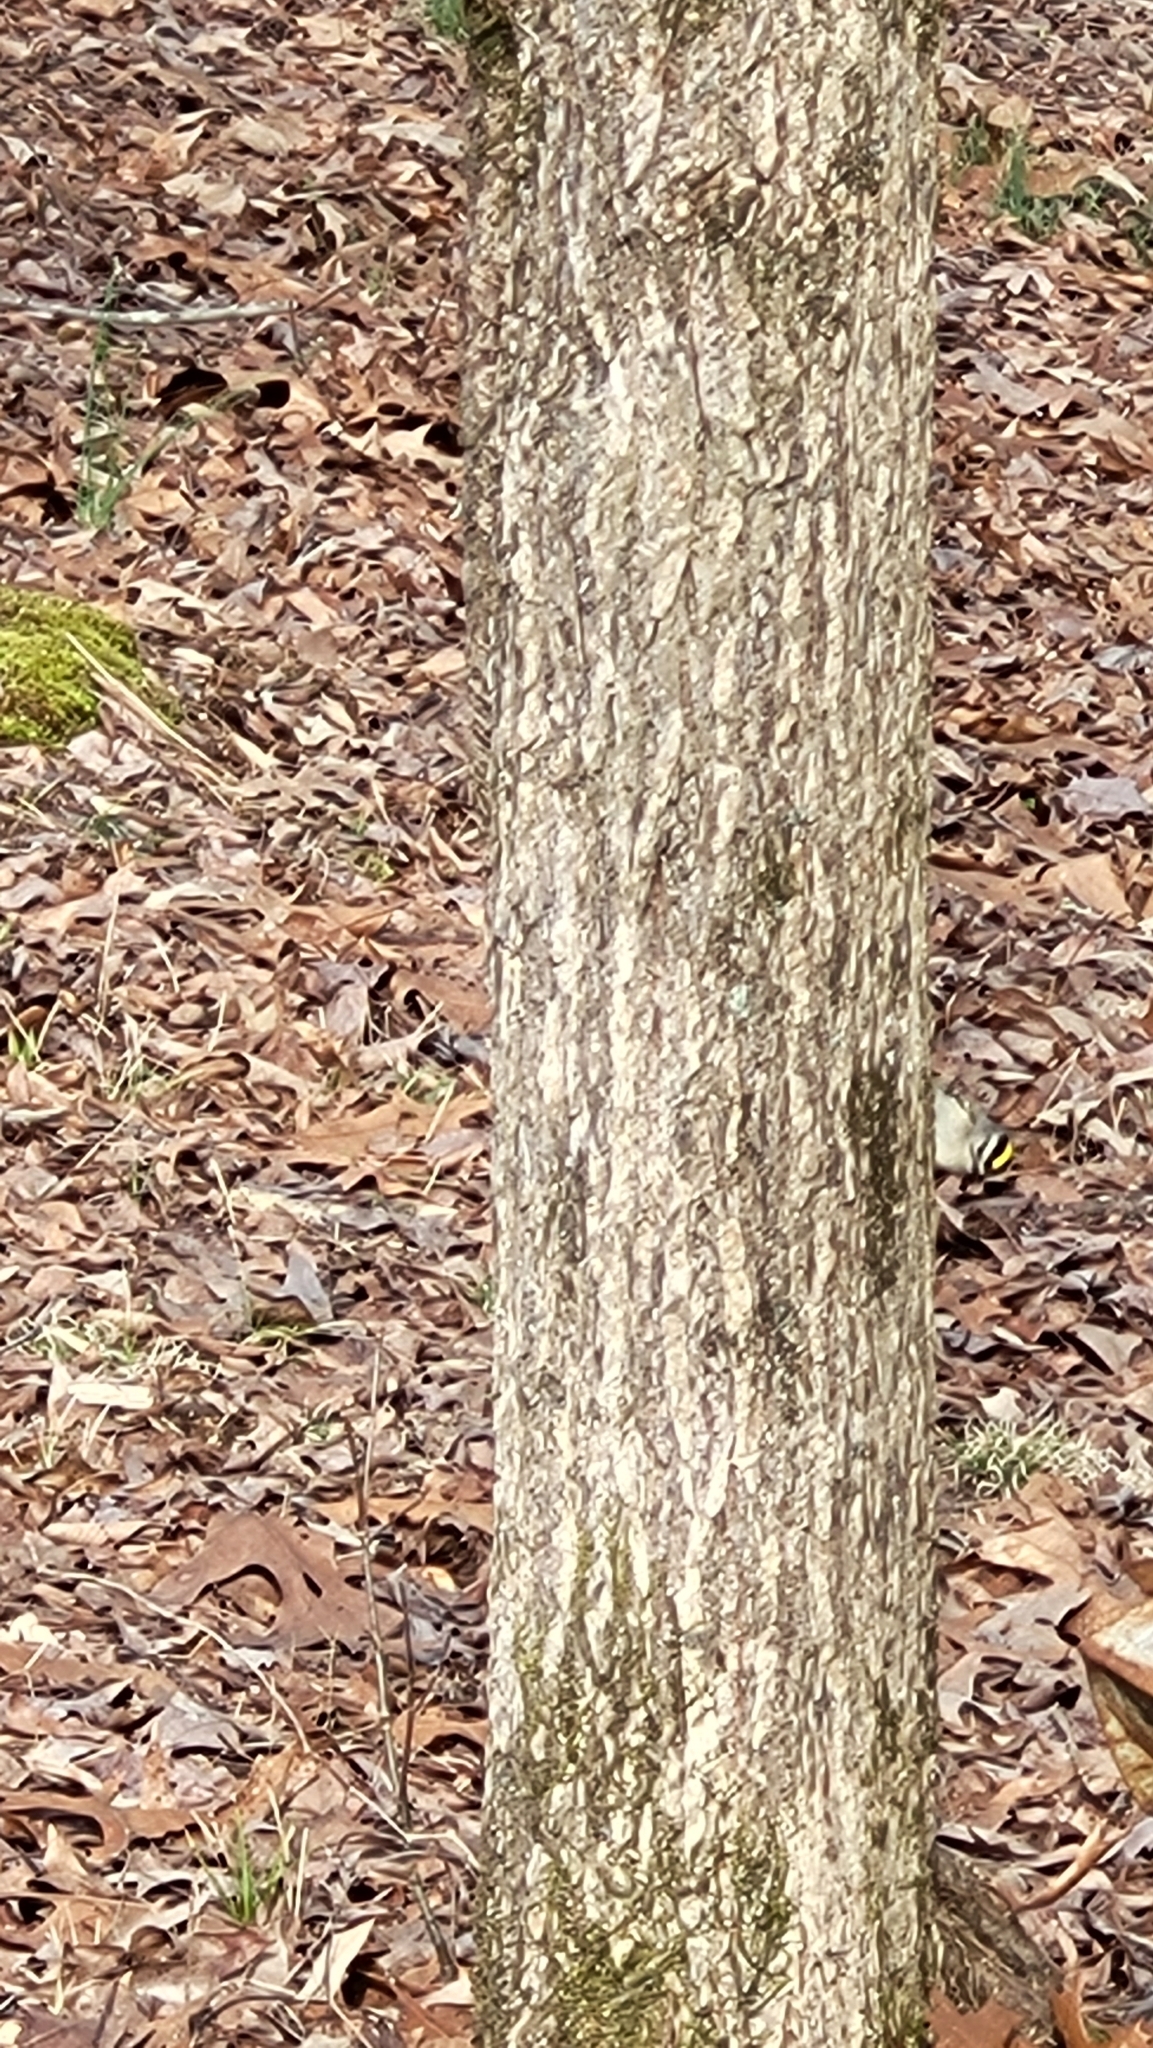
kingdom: Animalia
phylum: Chordata
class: Aves
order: Passeriformes
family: Regulidae
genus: Regulus
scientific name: Regulus satrapa
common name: Golden-crowned kinglet
